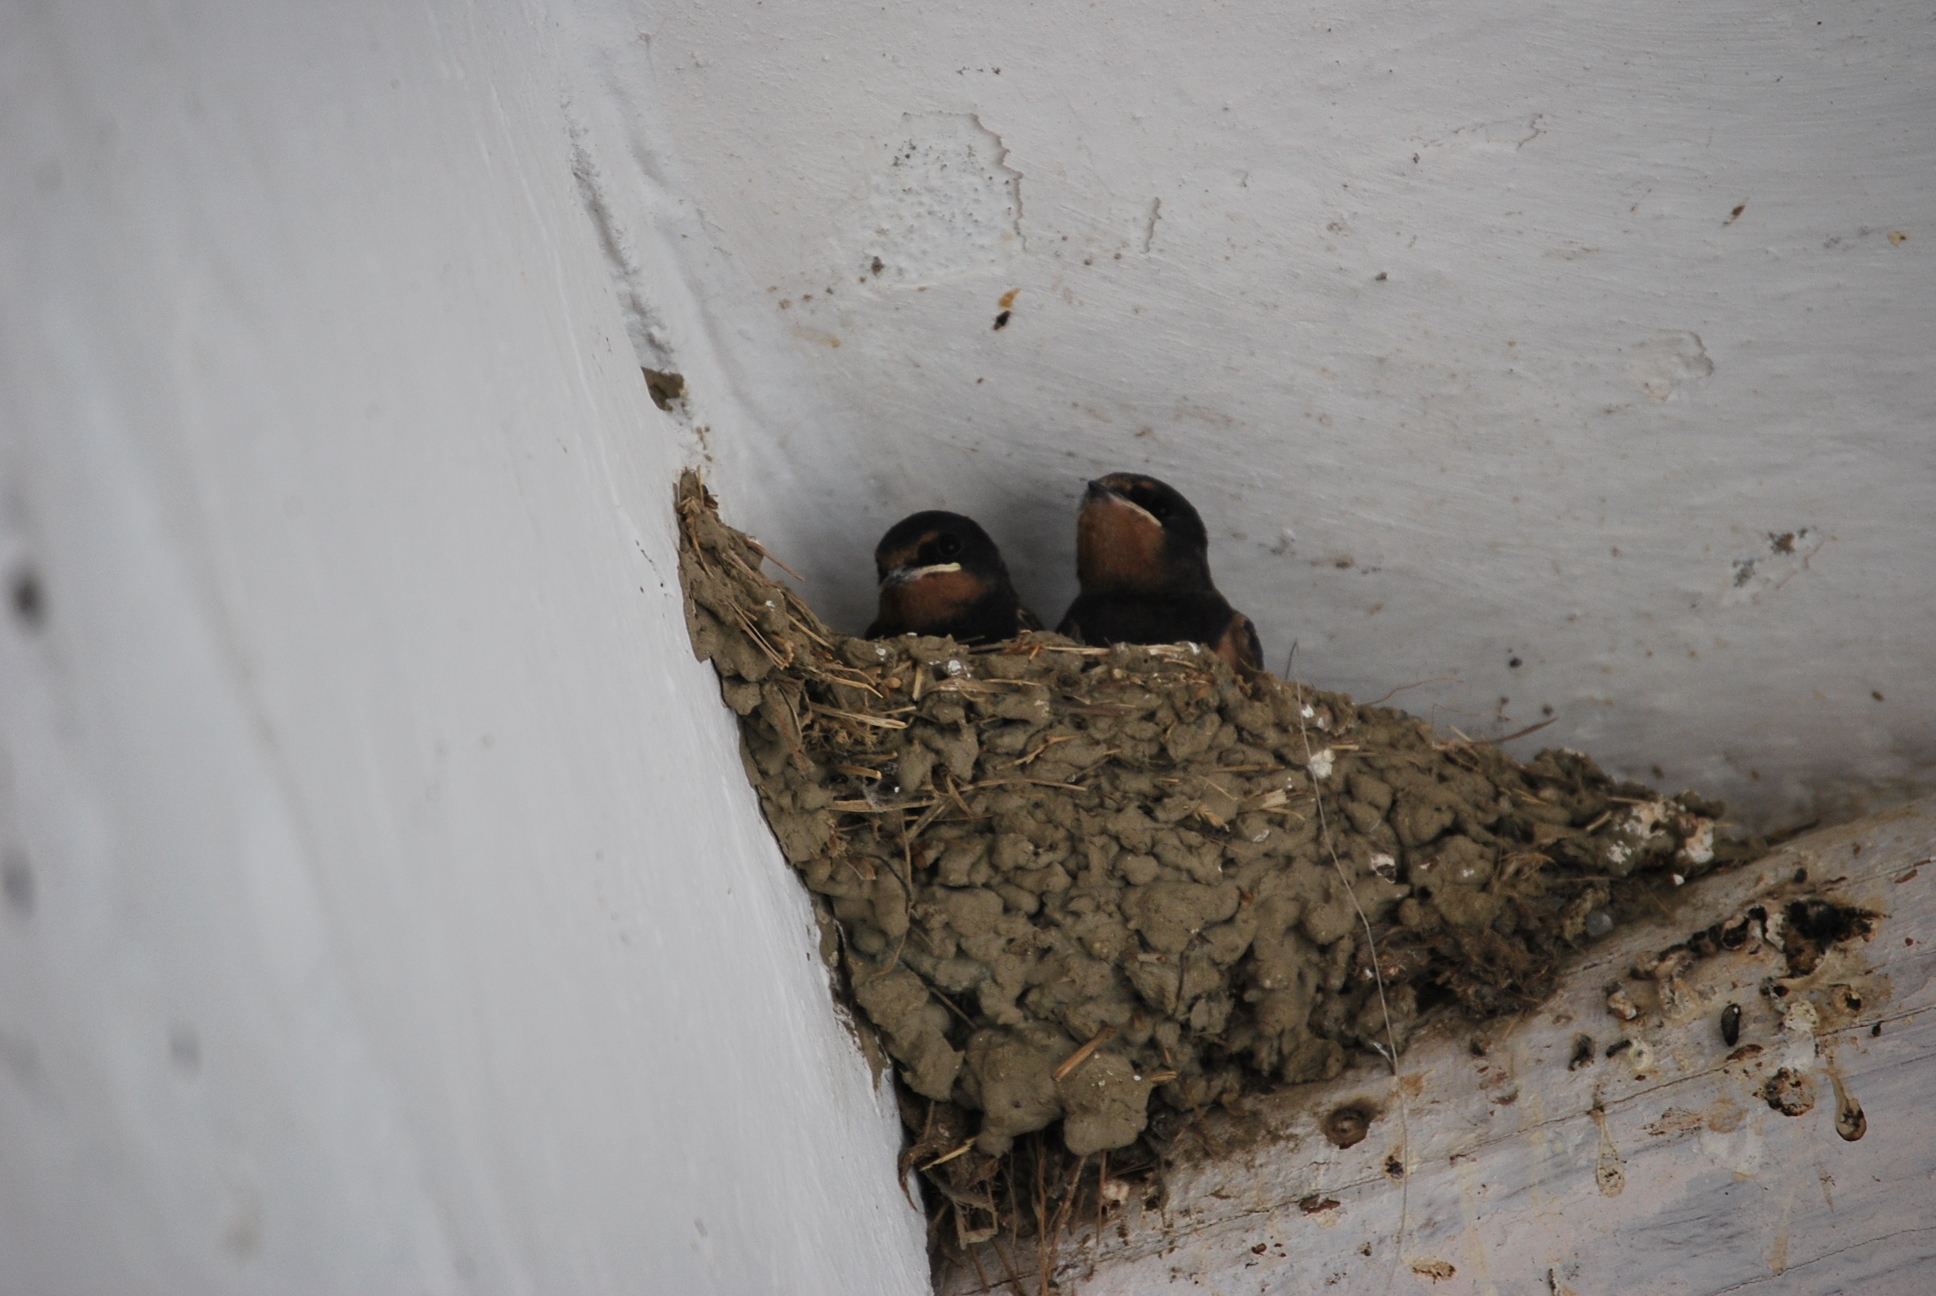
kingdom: Animalia
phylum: Chordata
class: Aves
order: Passeriformes
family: Hirundinidae
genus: Hirundo
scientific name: Hirundo rustica
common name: Barn swallow
